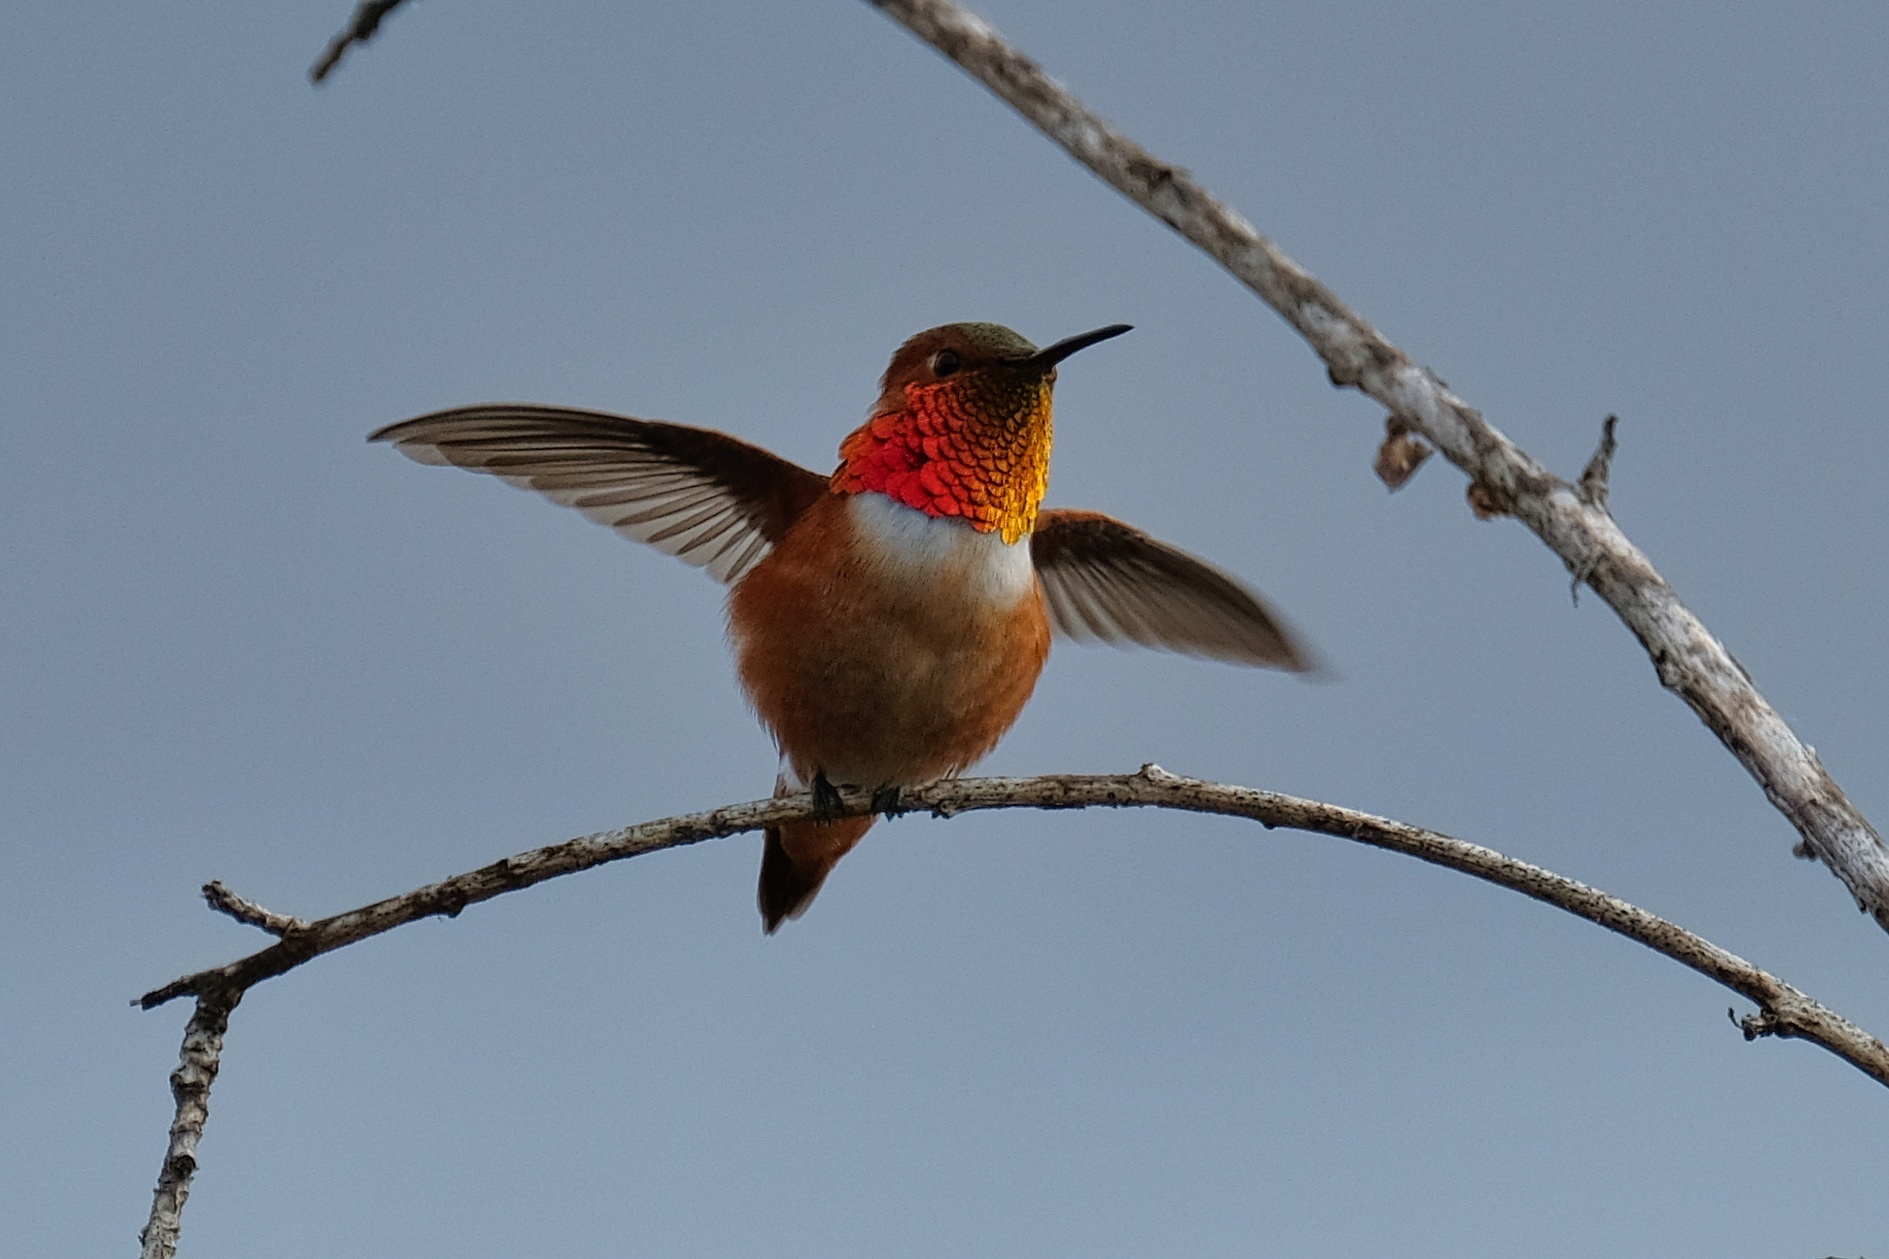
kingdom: Animalia
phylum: Chordata
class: Aves
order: Apodiformes
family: Trochilidae
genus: Selasphorus
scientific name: Selasphorus sasin
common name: Allen's hummingbird
